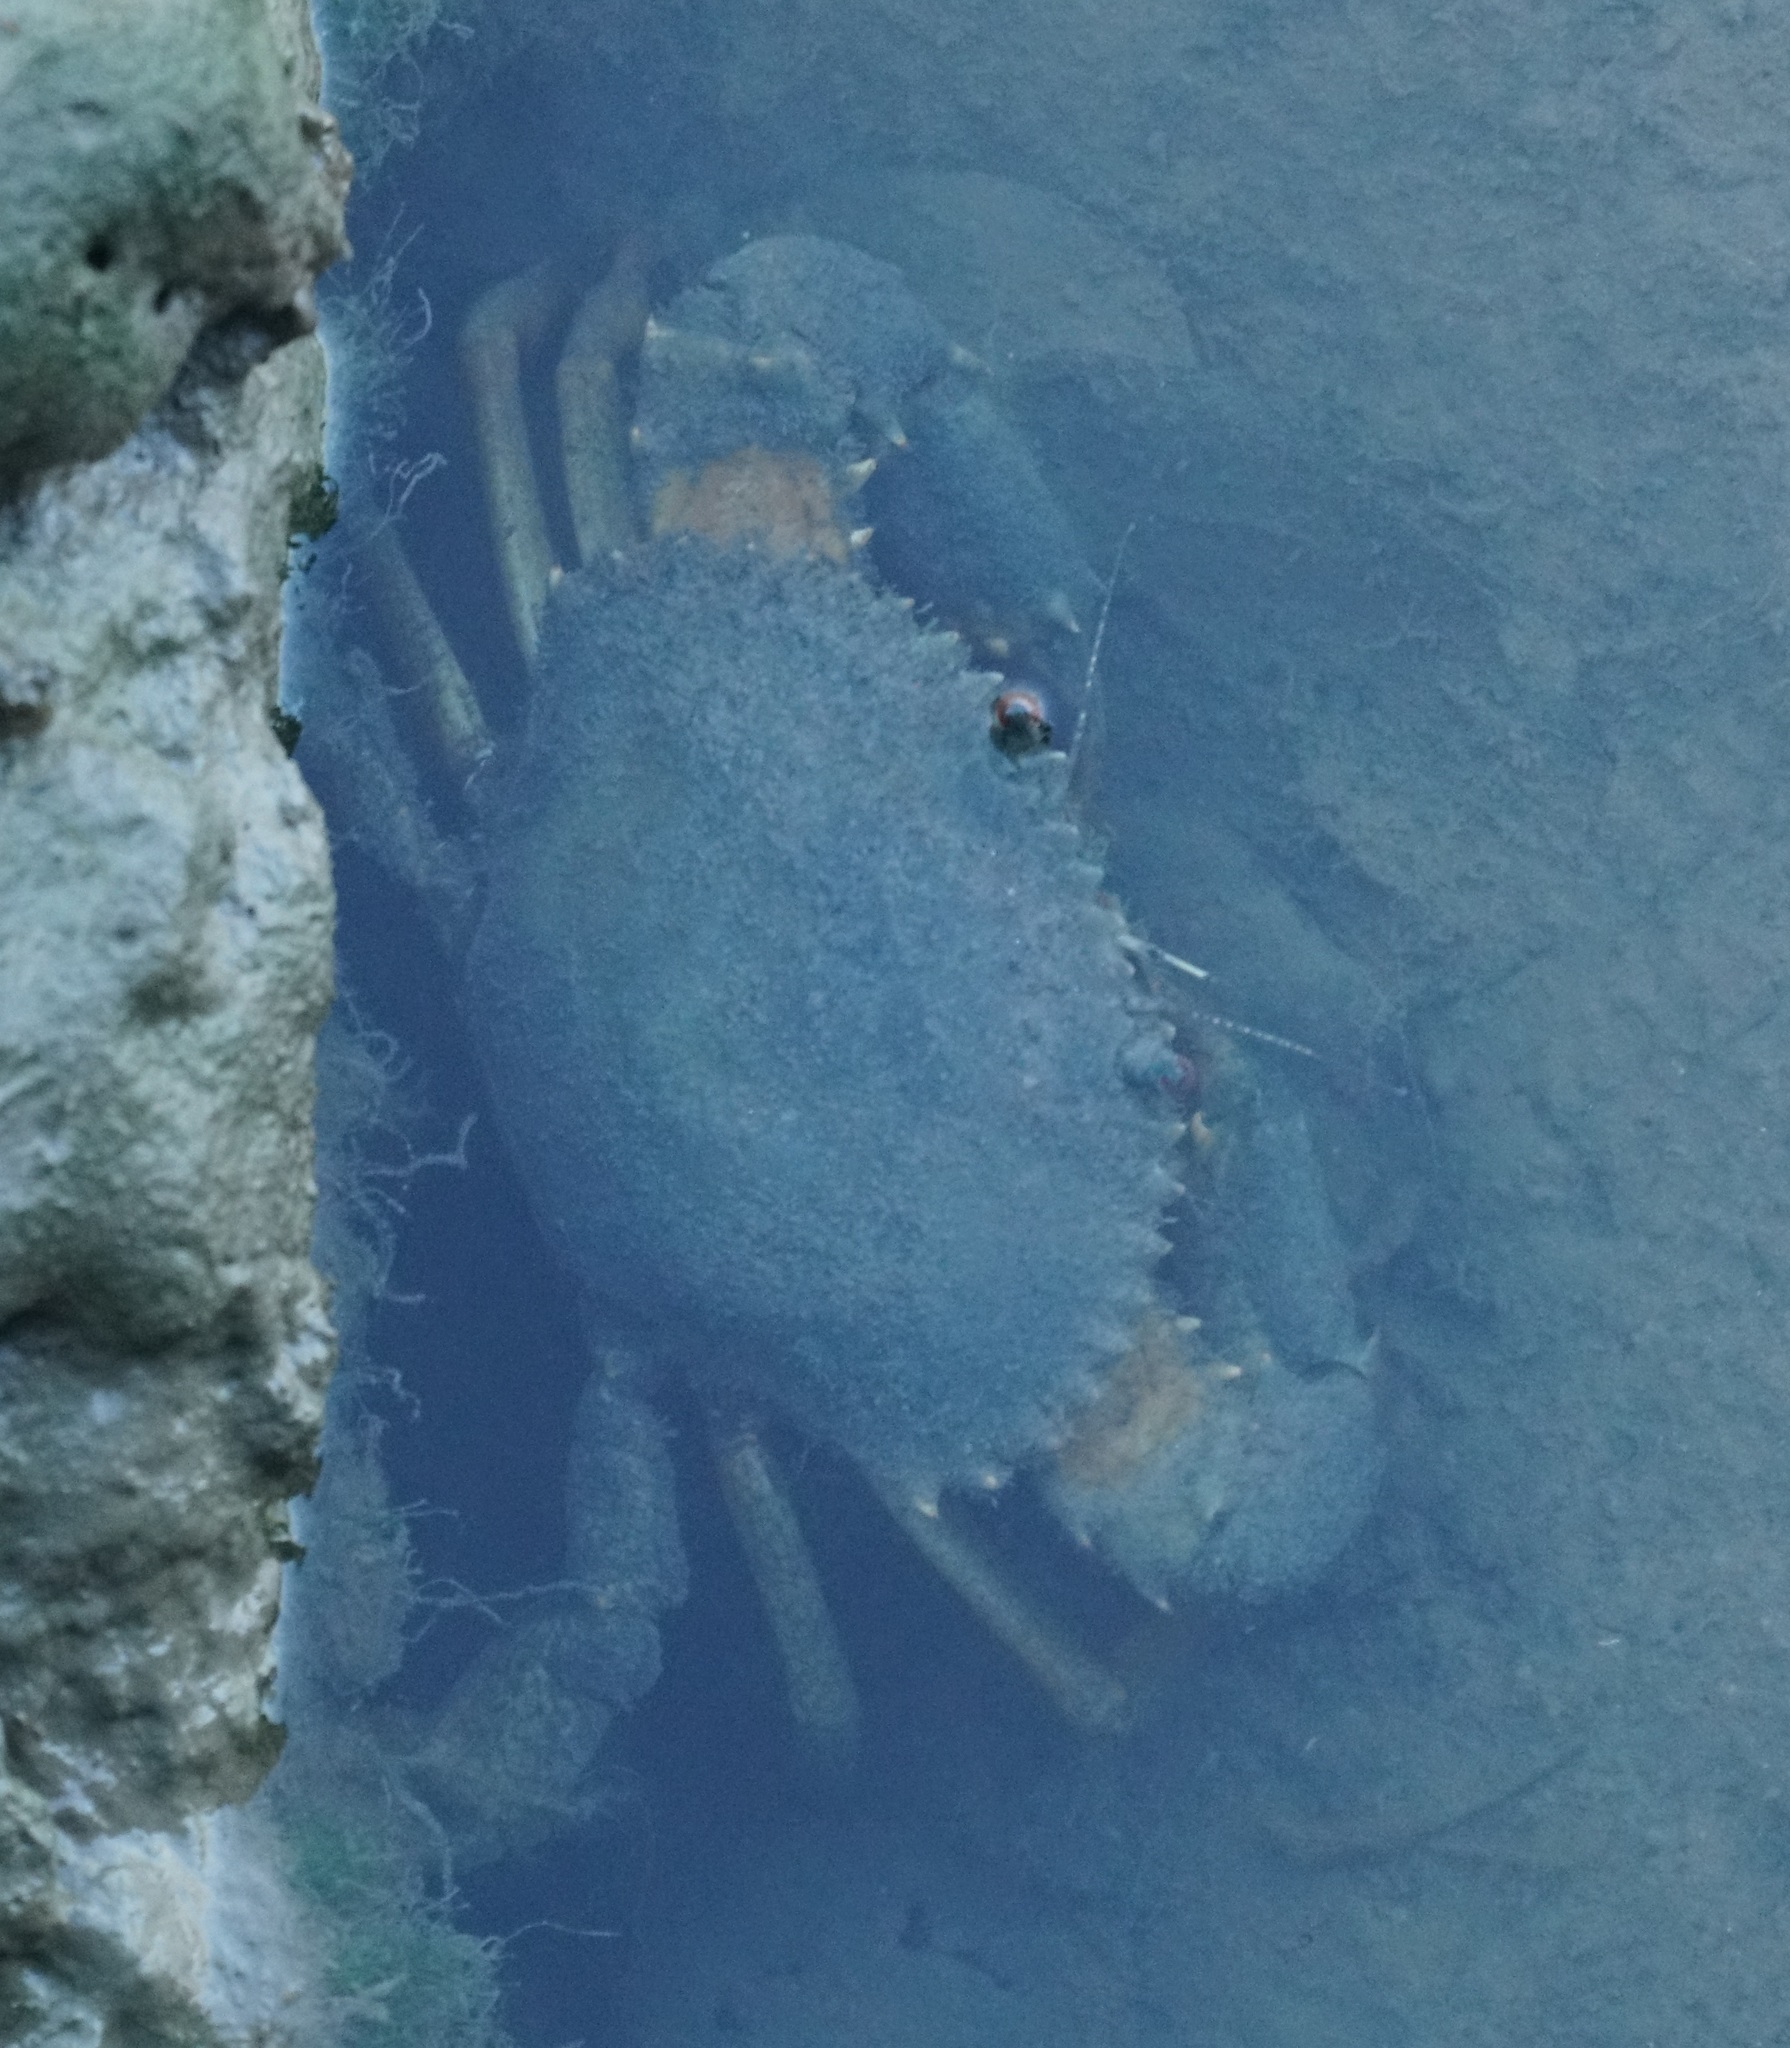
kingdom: Animalia
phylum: Arthropoda
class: Malacostraca
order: Decapoda
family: Portunidae
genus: Scylla
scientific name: Scylla serrata
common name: Giant mud crab
